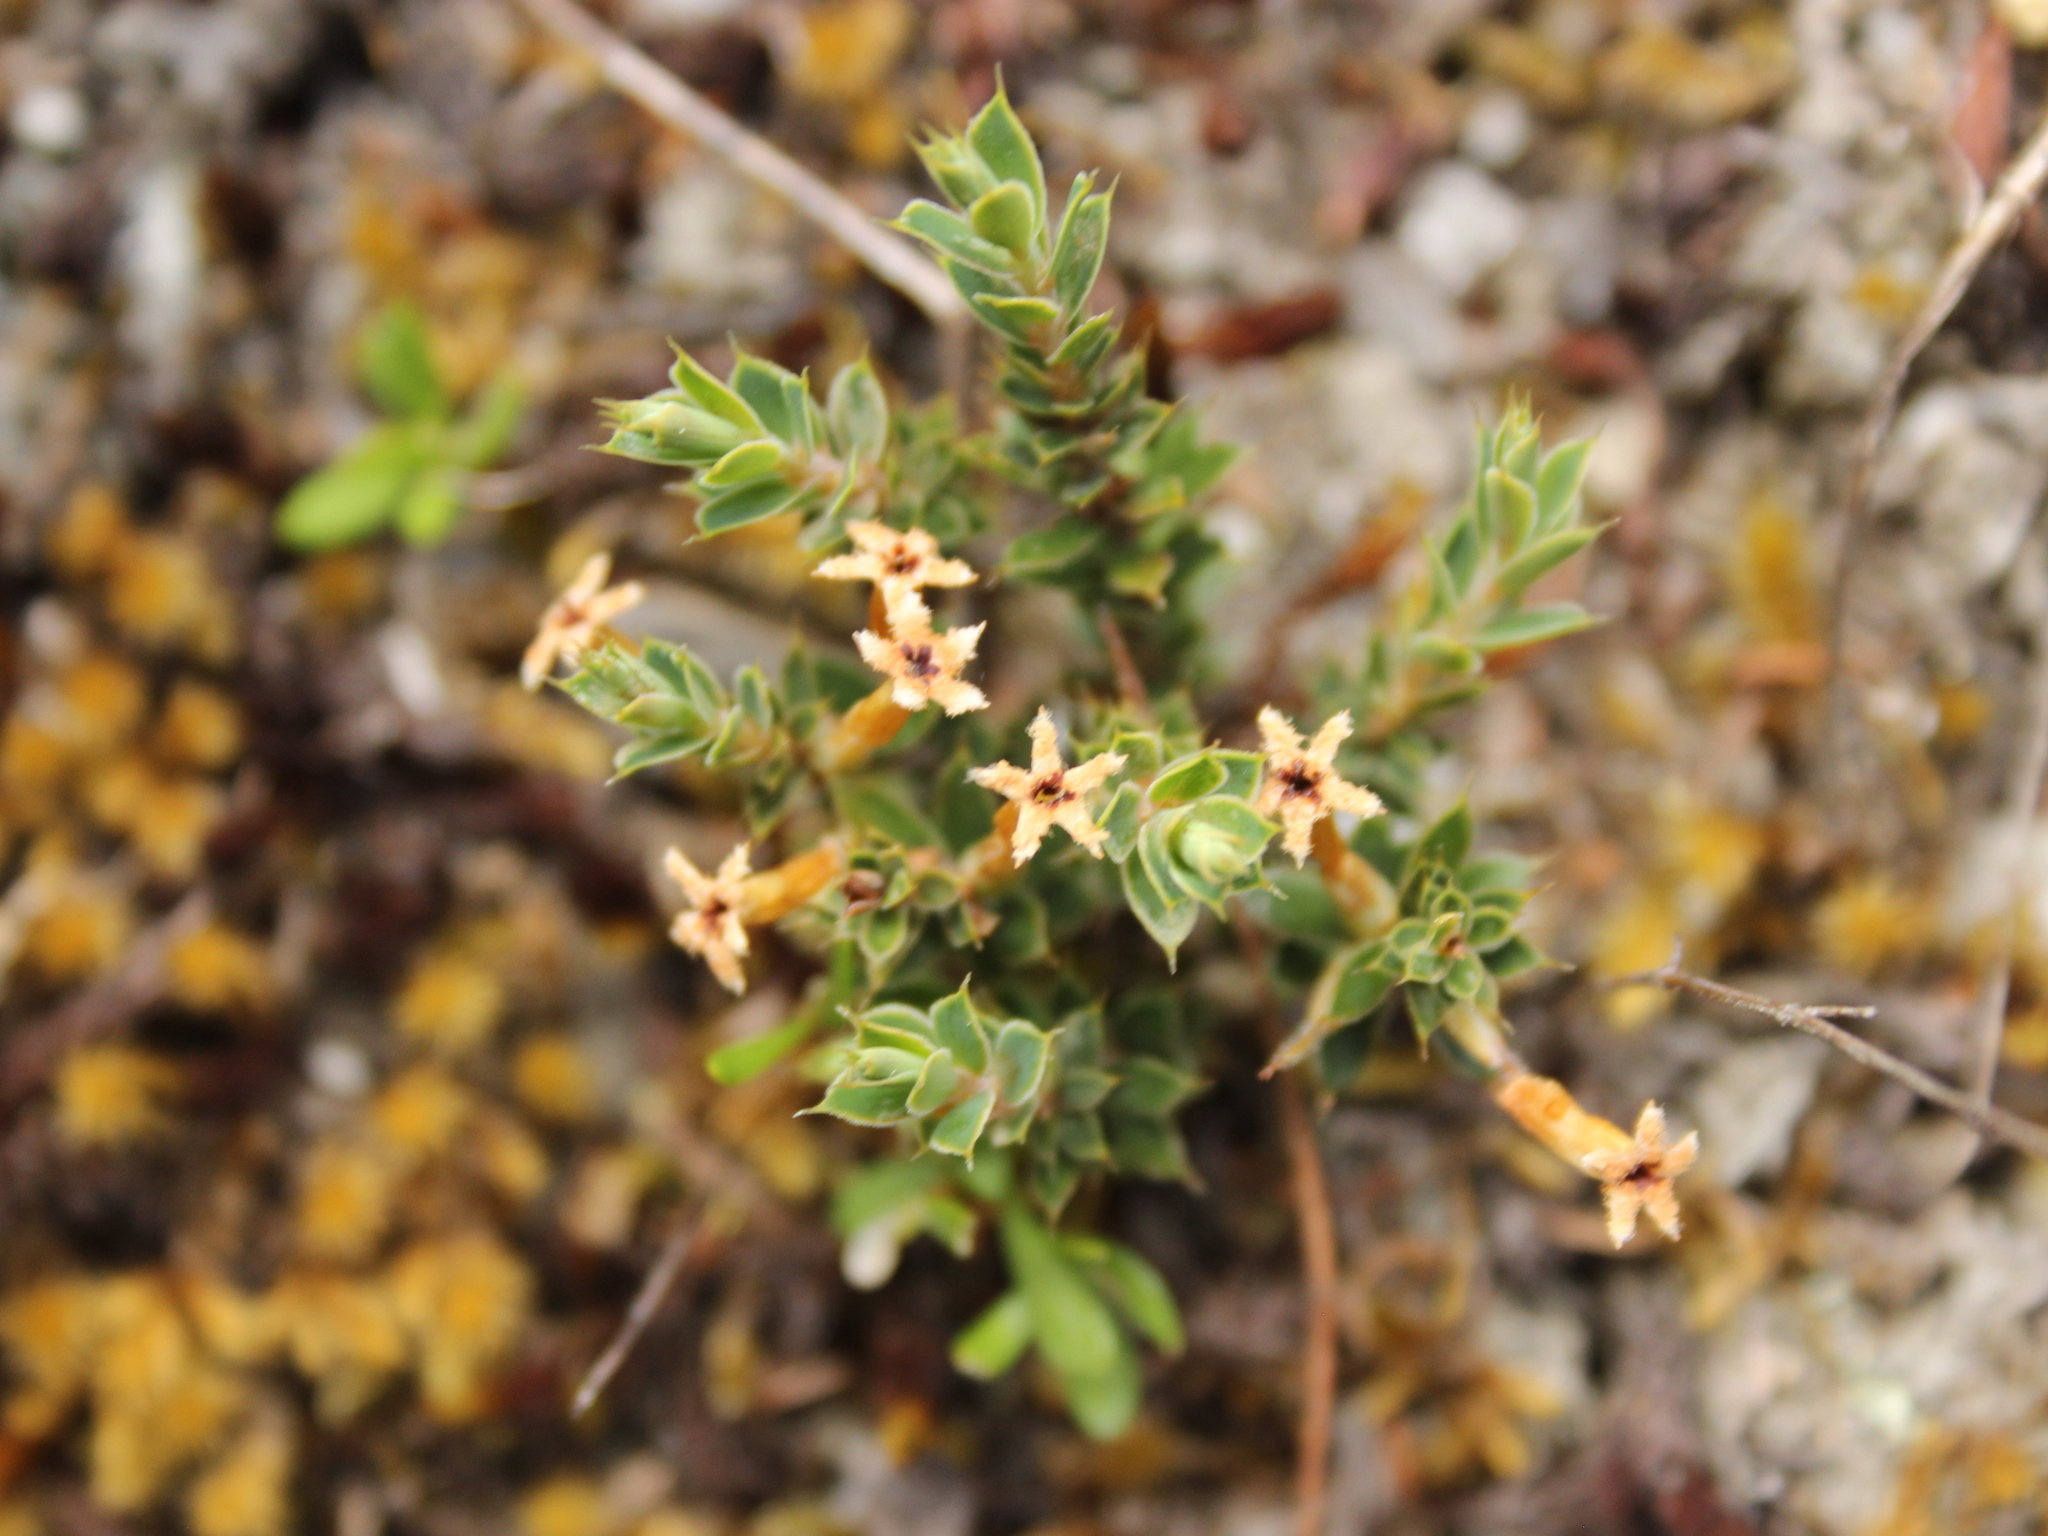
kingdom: Plantae
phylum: Tracheophyta
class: Magnoliopsida
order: Ericales
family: Ericaceae
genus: Styphelia
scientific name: Styphelia nesophila
